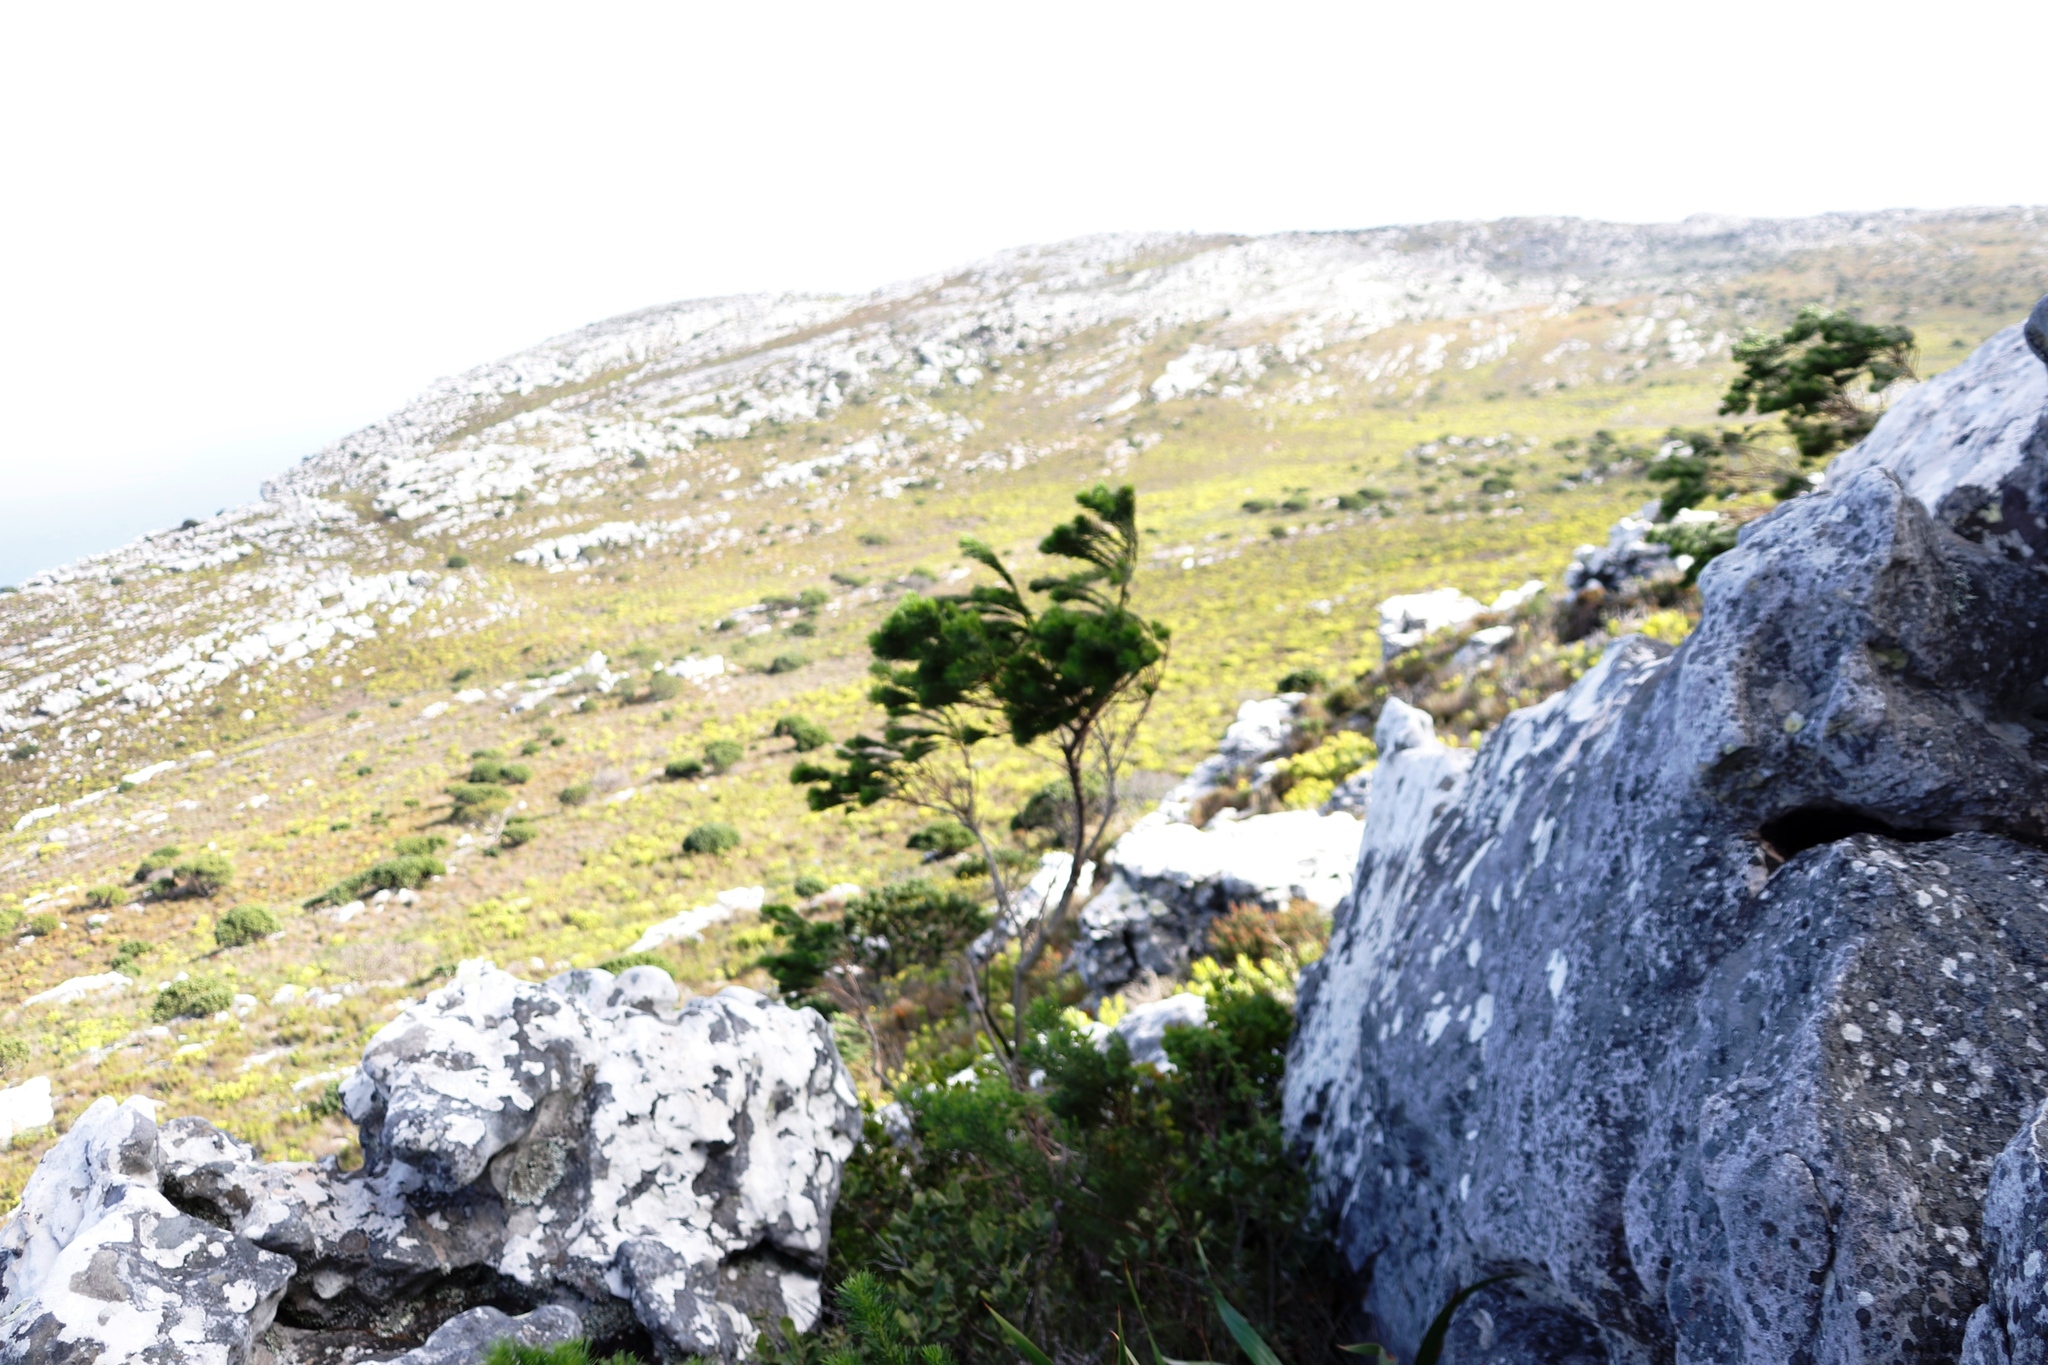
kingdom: Plantae
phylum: Tracheophyta
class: Magnoliopsida
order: Fabales
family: Fabaceae
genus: Psoralea
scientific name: Psoralea pinnata
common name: African scurfpea
